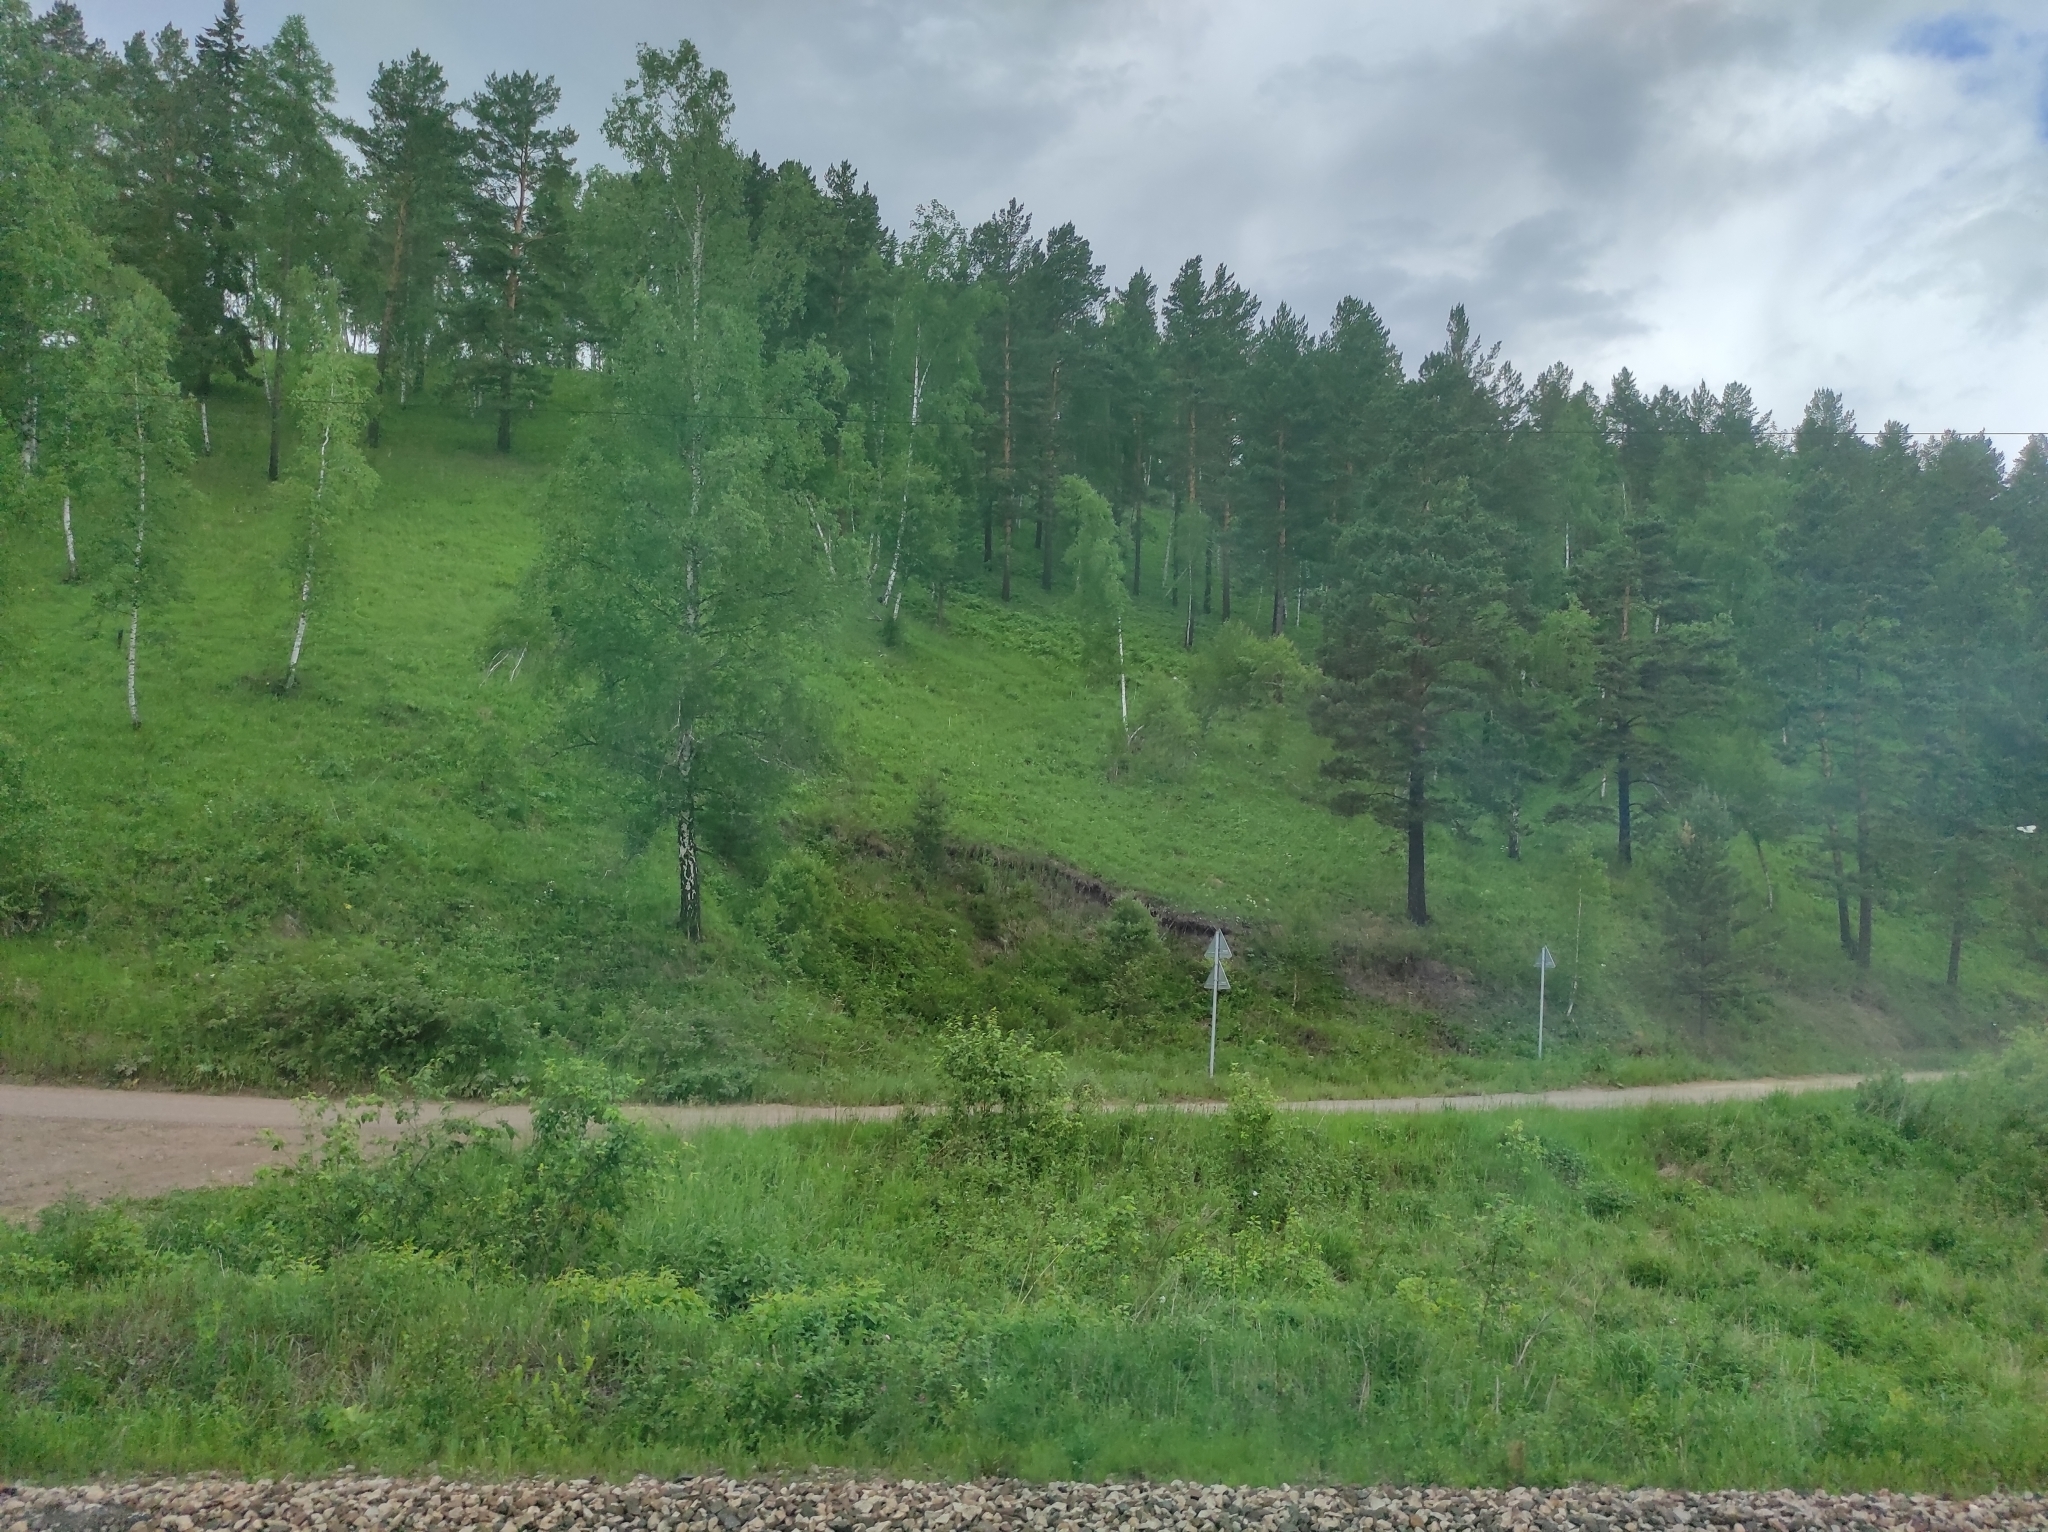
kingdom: Plantae
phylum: Tracheophyta
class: Pinopsida
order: Pinales
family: Pinaceae
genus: Pinus
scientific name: Pinus sylvestris
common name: Scots pine
